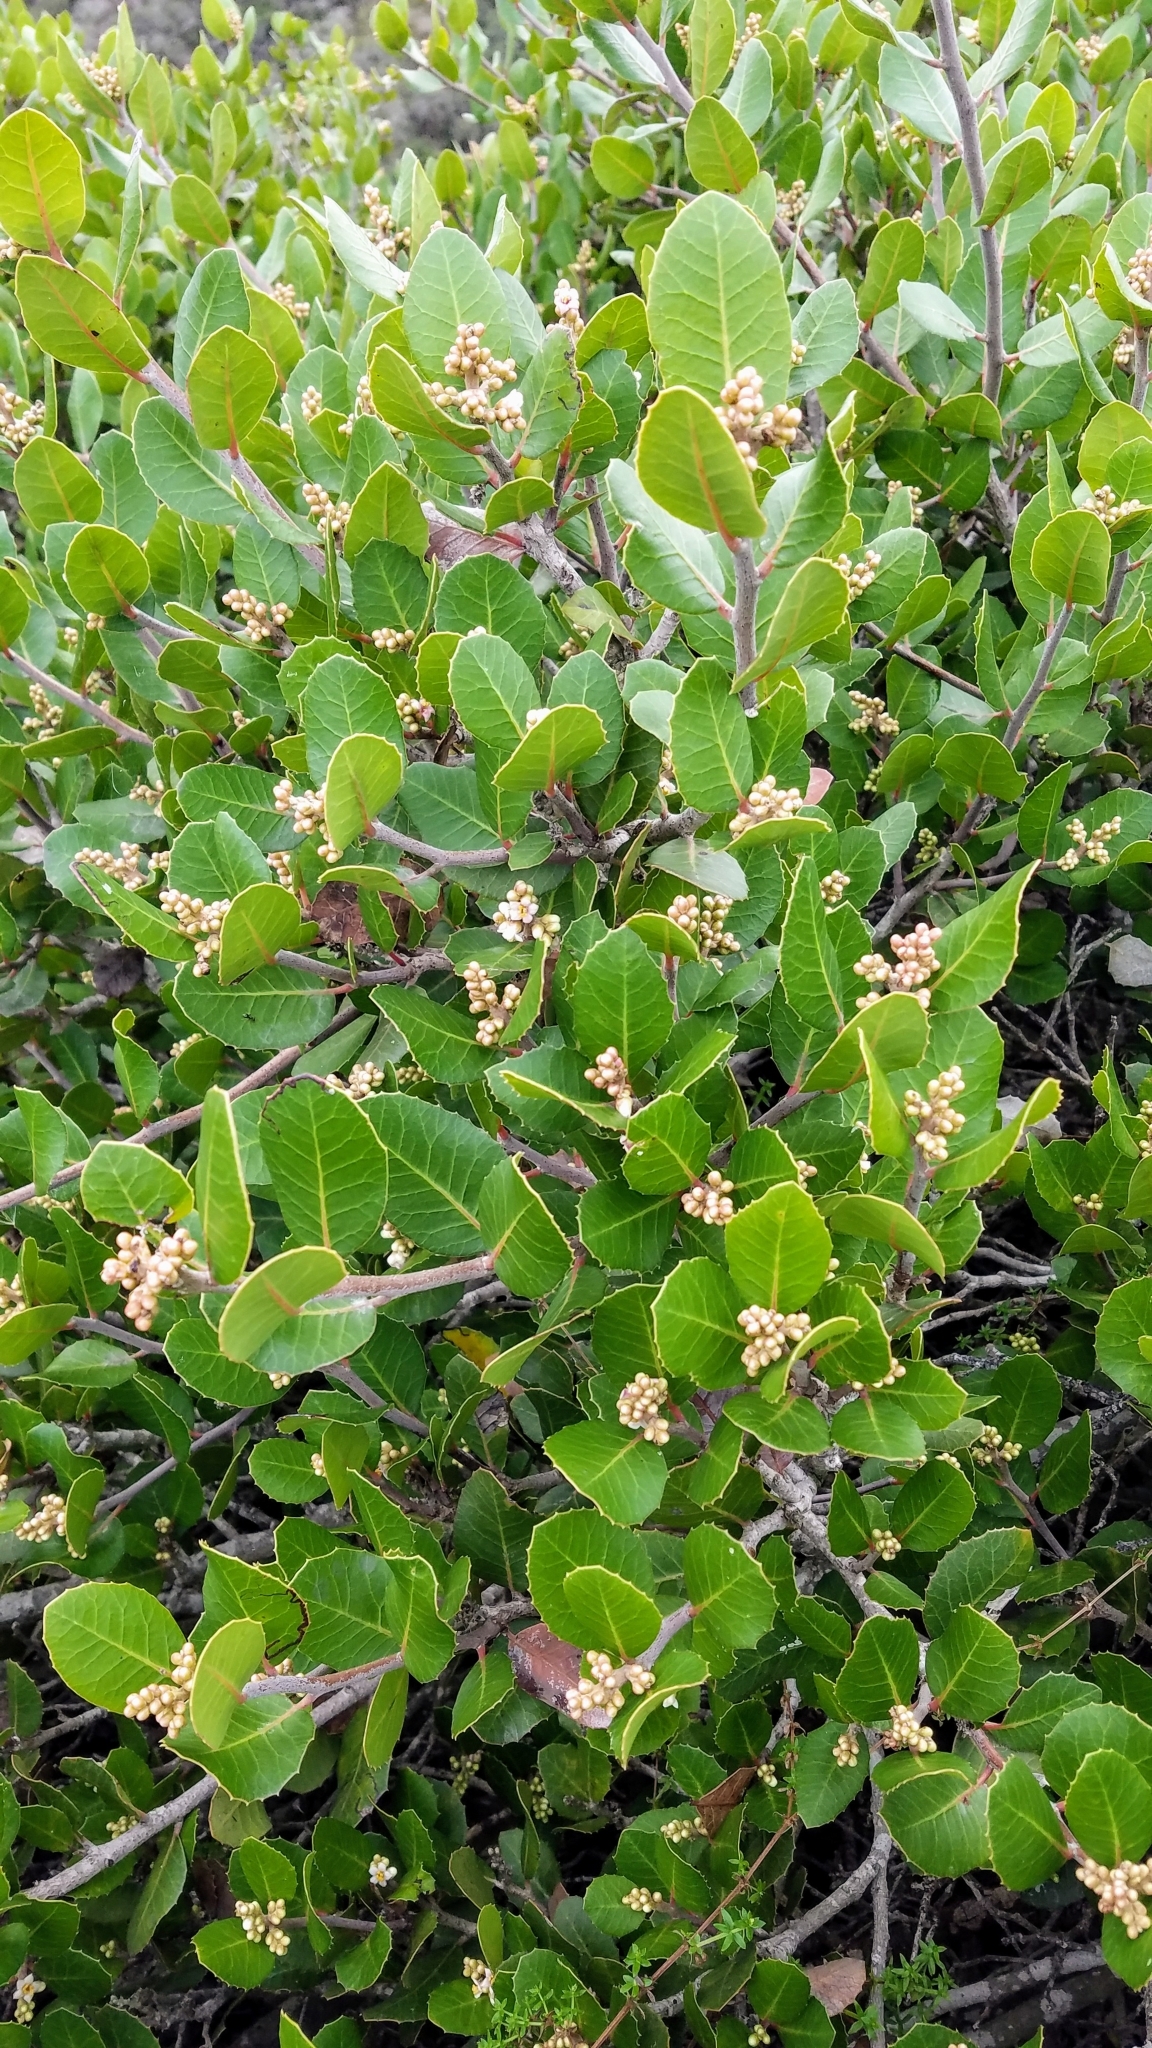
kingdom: Plantae
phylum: Tracheophyta
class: Magnoliopsida
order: Sapindales
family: Anacardiaceae
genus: Rhus
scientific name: Rhus integrifolia
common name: Lemonade sumac
